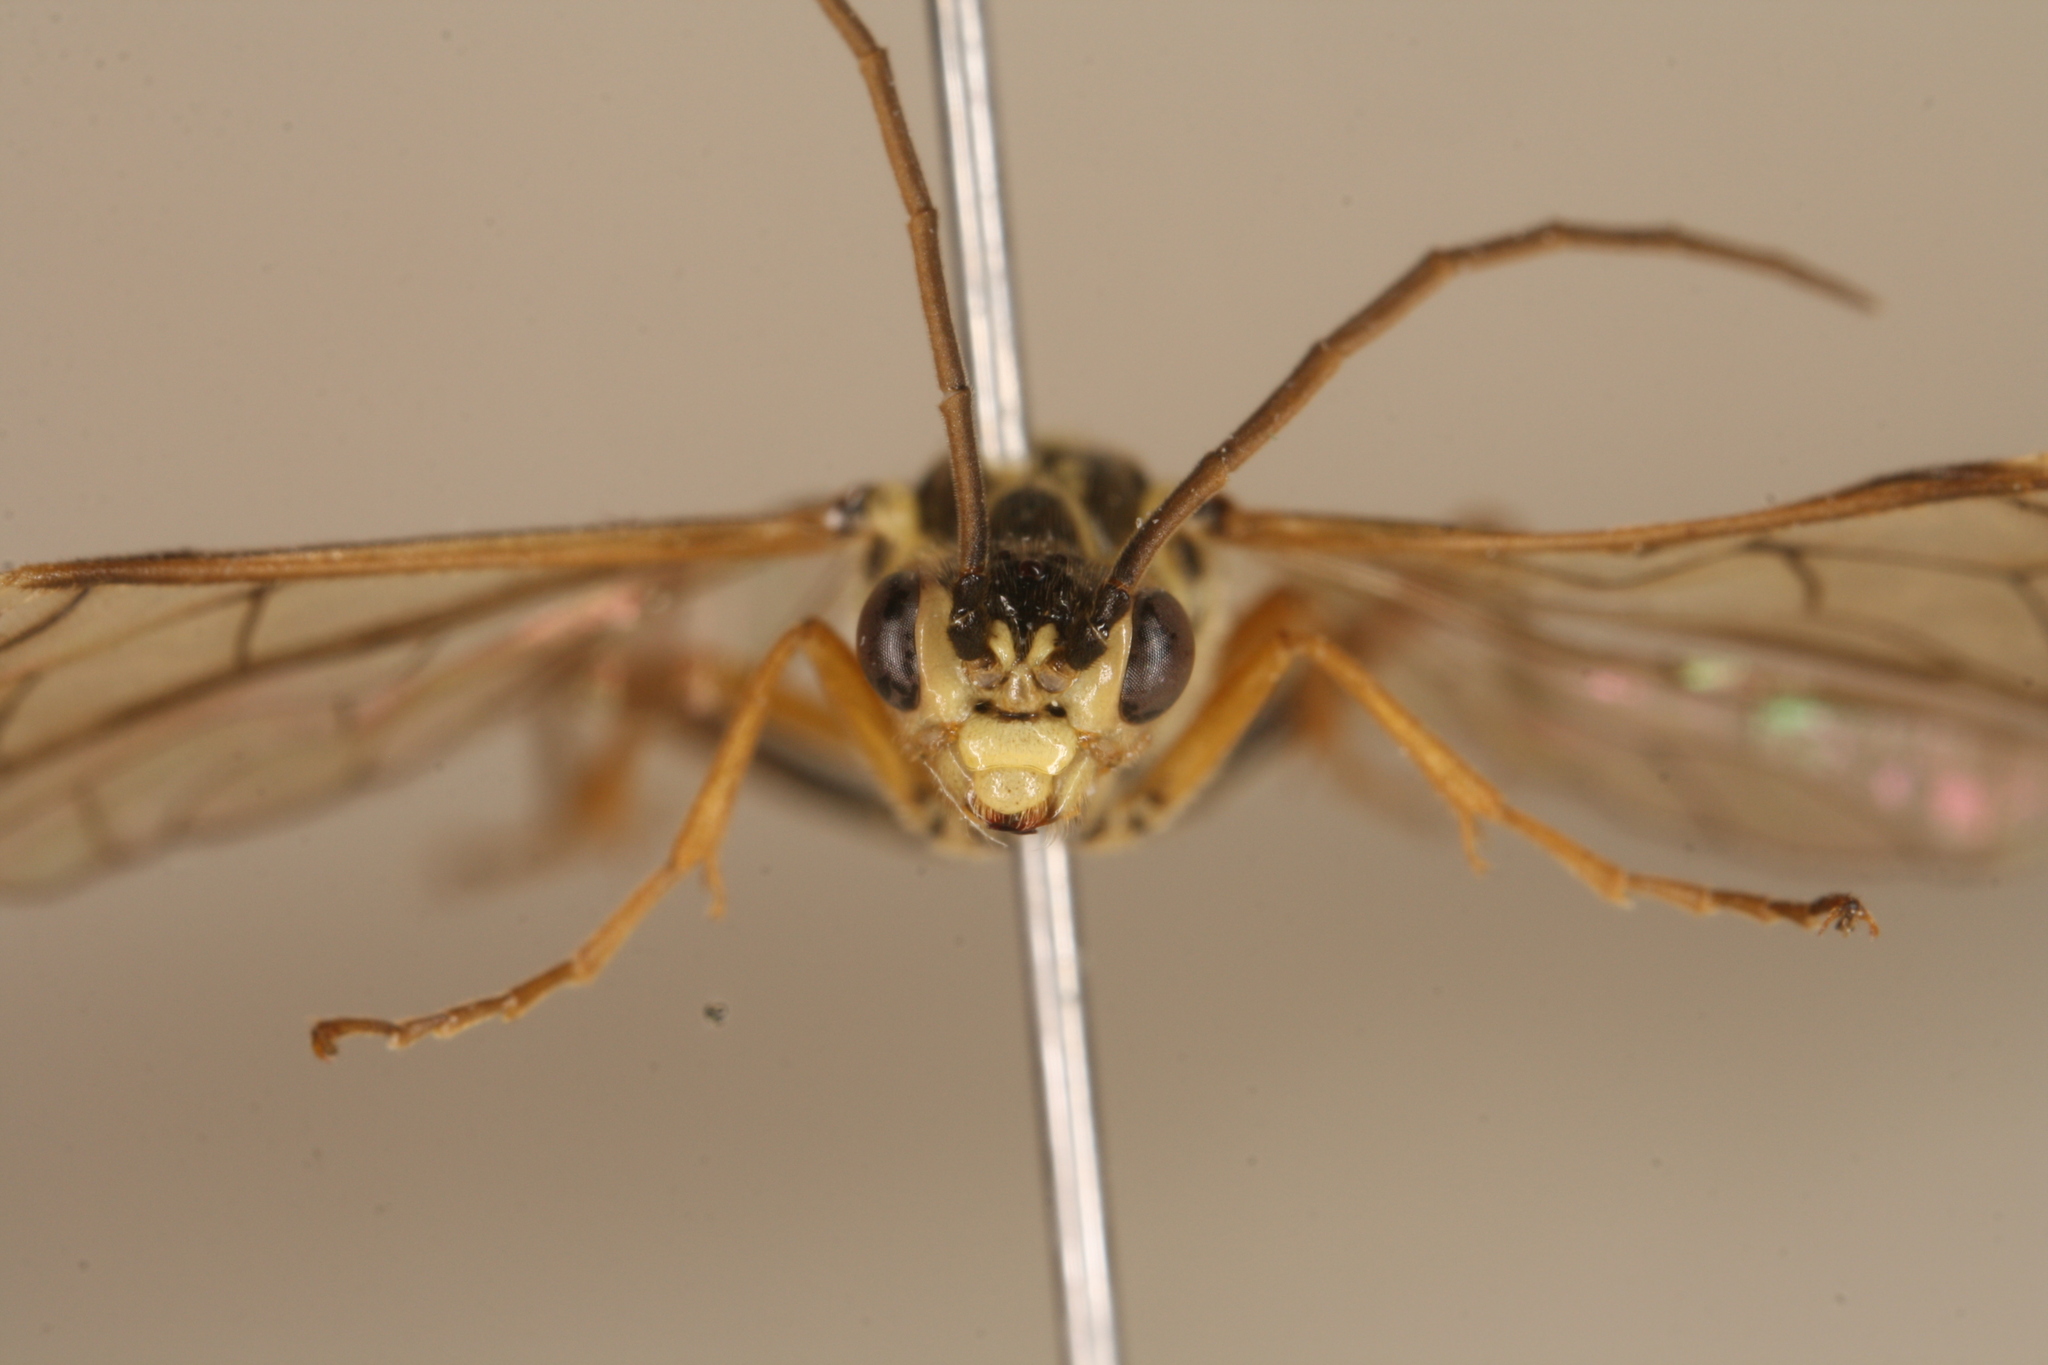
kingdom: Animalia
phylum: Arthropoda
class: Insecta
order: Hymenoptera
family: Tenthredinidae
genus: Tenthredopsis
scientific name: Tenthredopsis sordida
